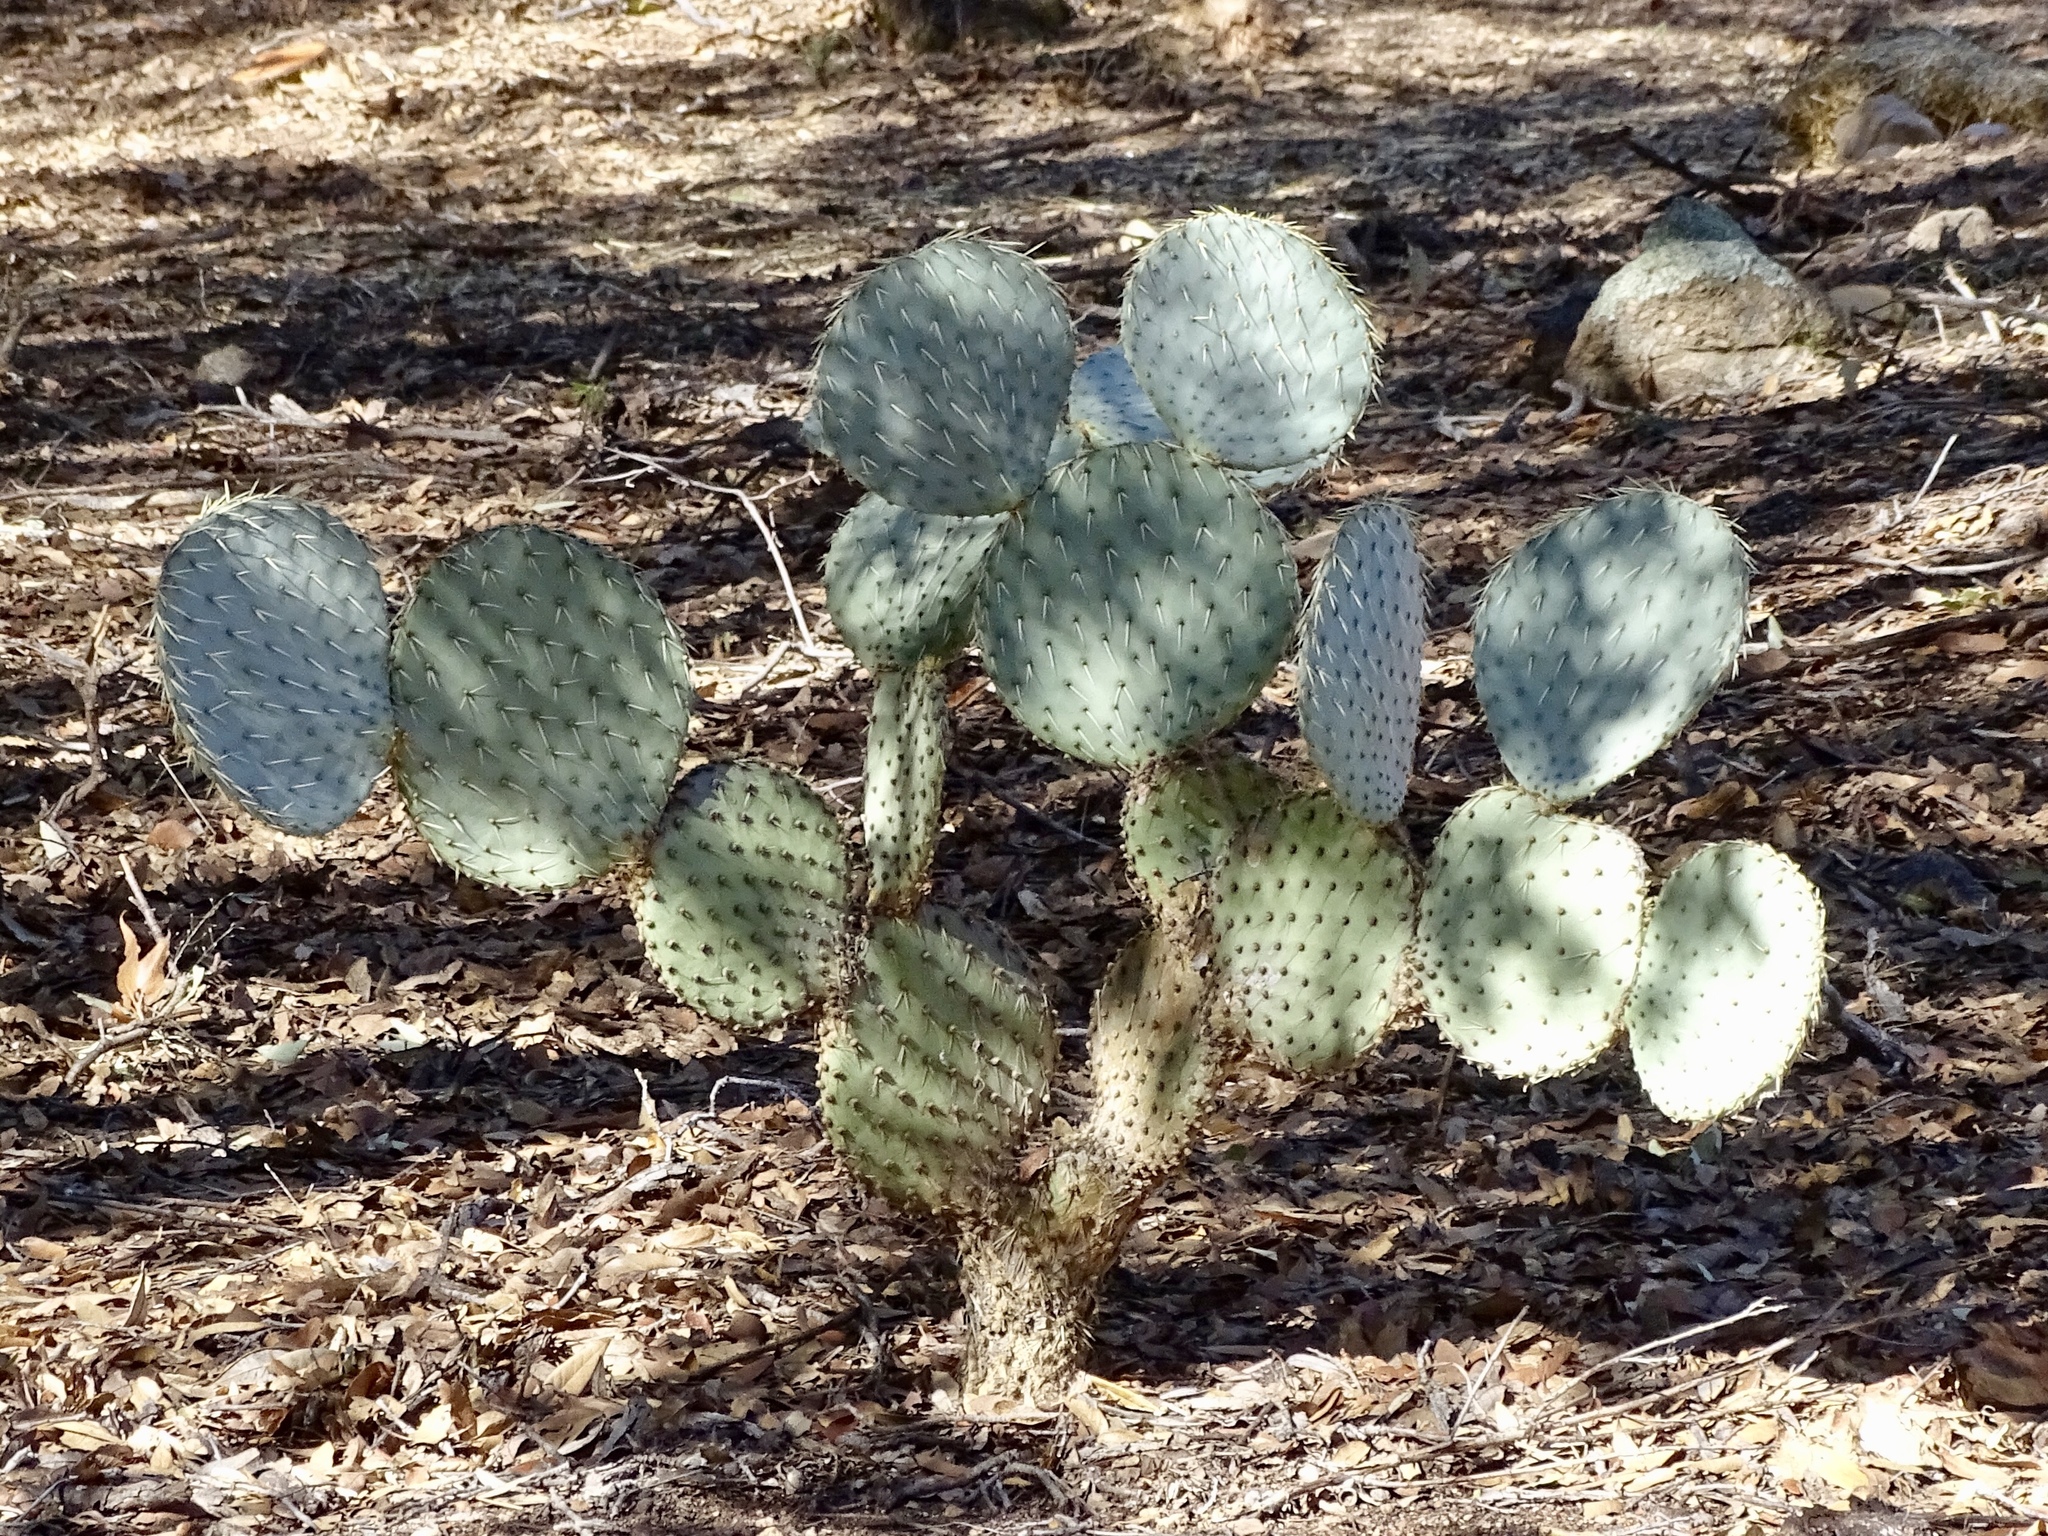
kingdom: Plantae
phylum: Tracheophyta
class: Magnoliopsida
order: Caryophyllales
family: Cactaceae
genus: Opuntia
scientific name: Opuntia chlorotica
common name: Dollar-joint prickly-pear
